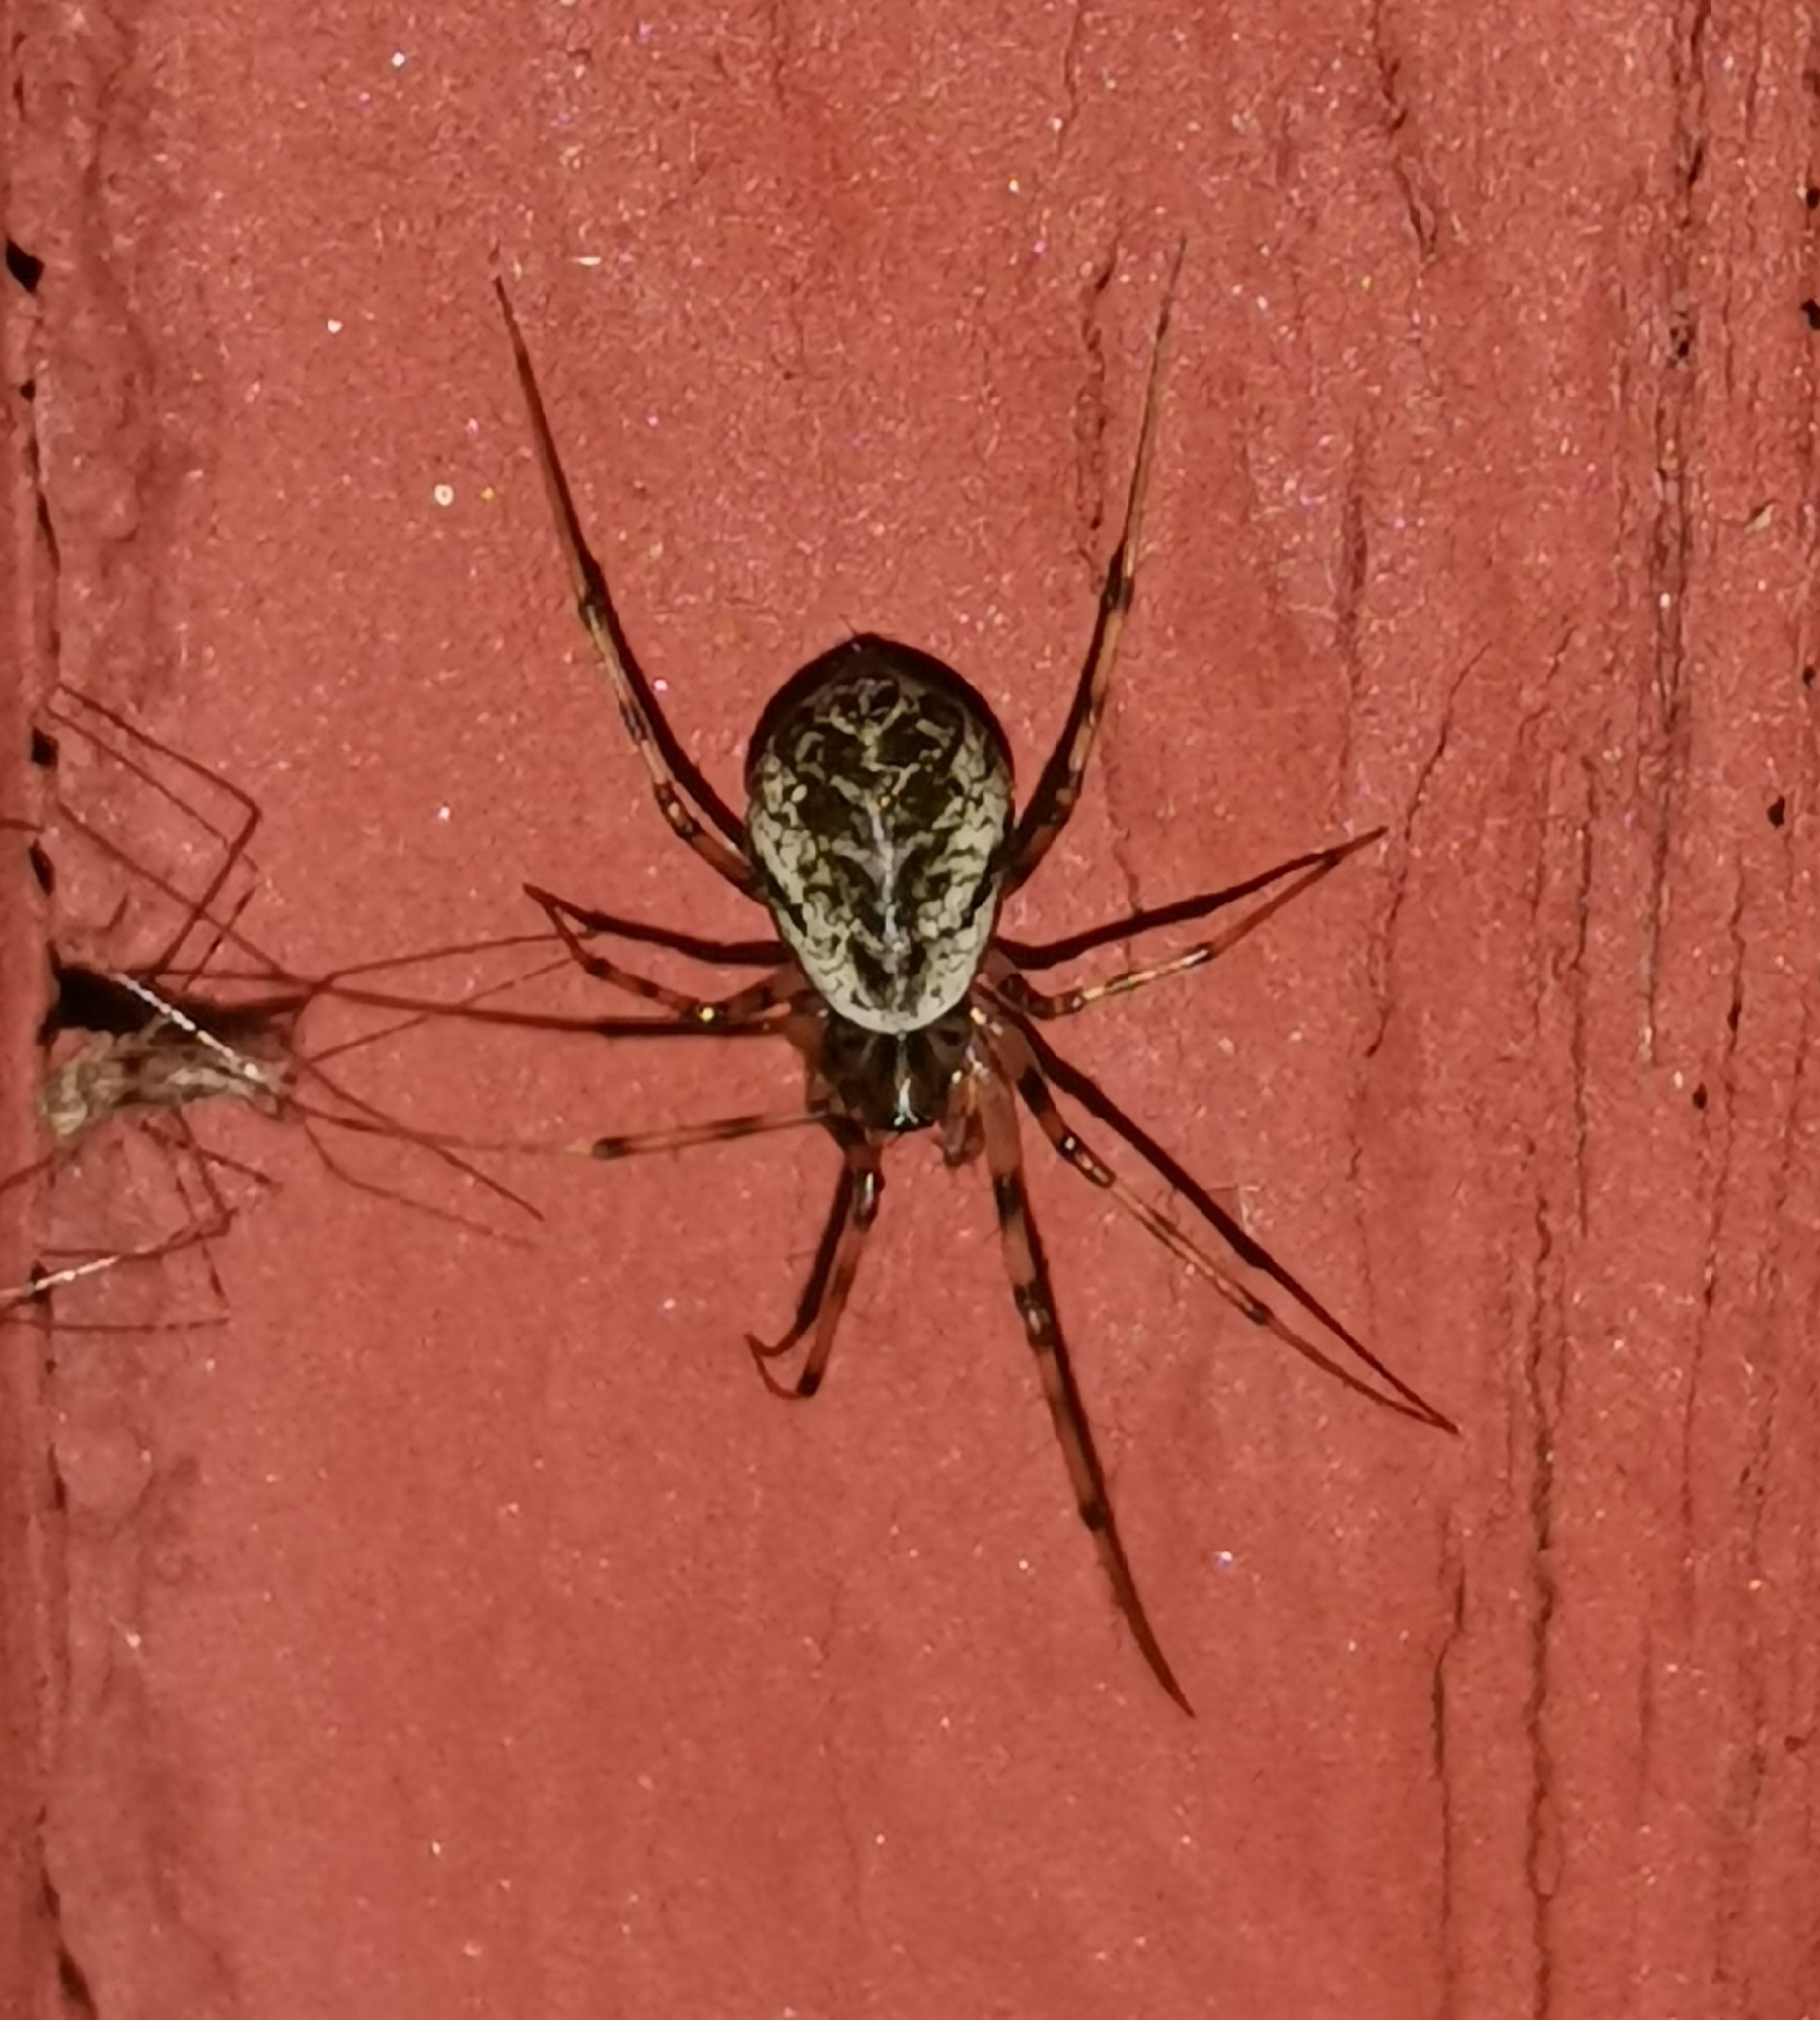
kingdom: Animalia
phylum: Arthropoda
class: Arachnida
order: Araneae
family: Linyphiidae
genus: Drapetisca
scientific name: Drapetisca socialis
